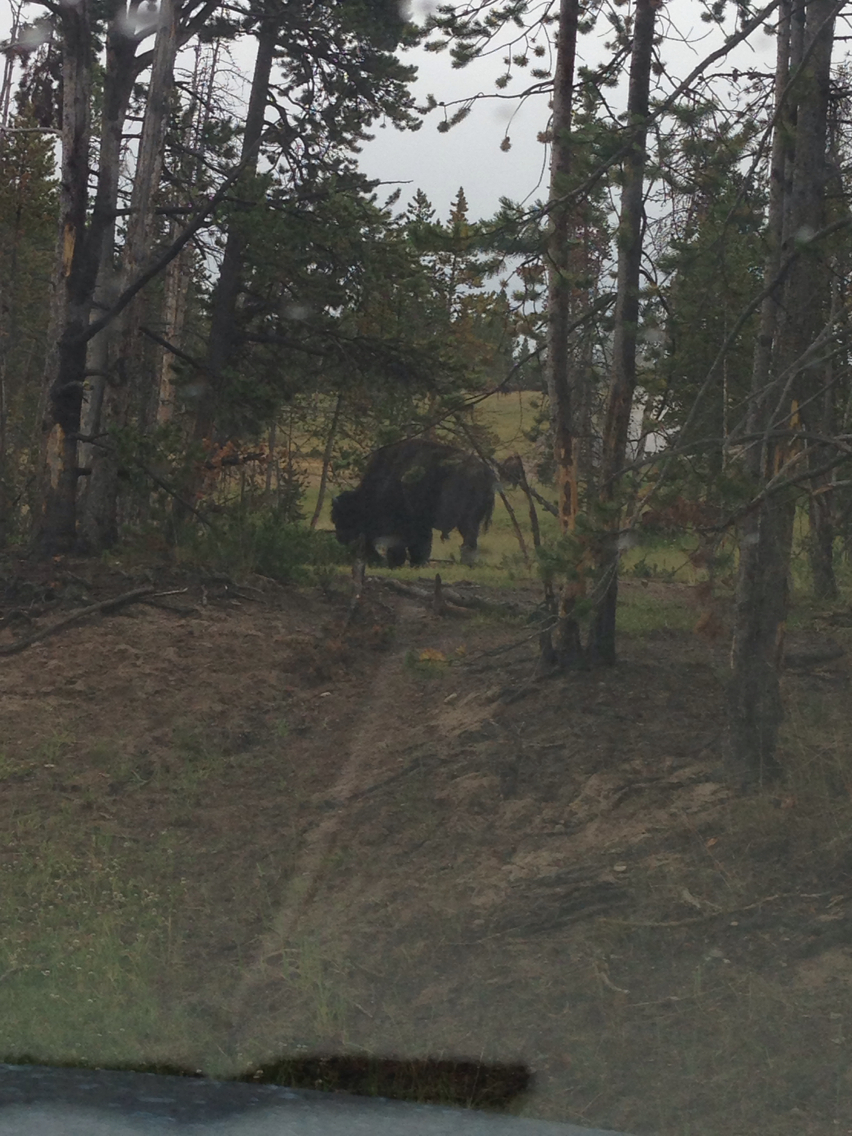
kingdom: Animalia
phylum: Chordata
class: Mammalia
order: Artiodactyla
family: Bovidae
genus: Bison
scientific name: Bison bison
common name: American bison
